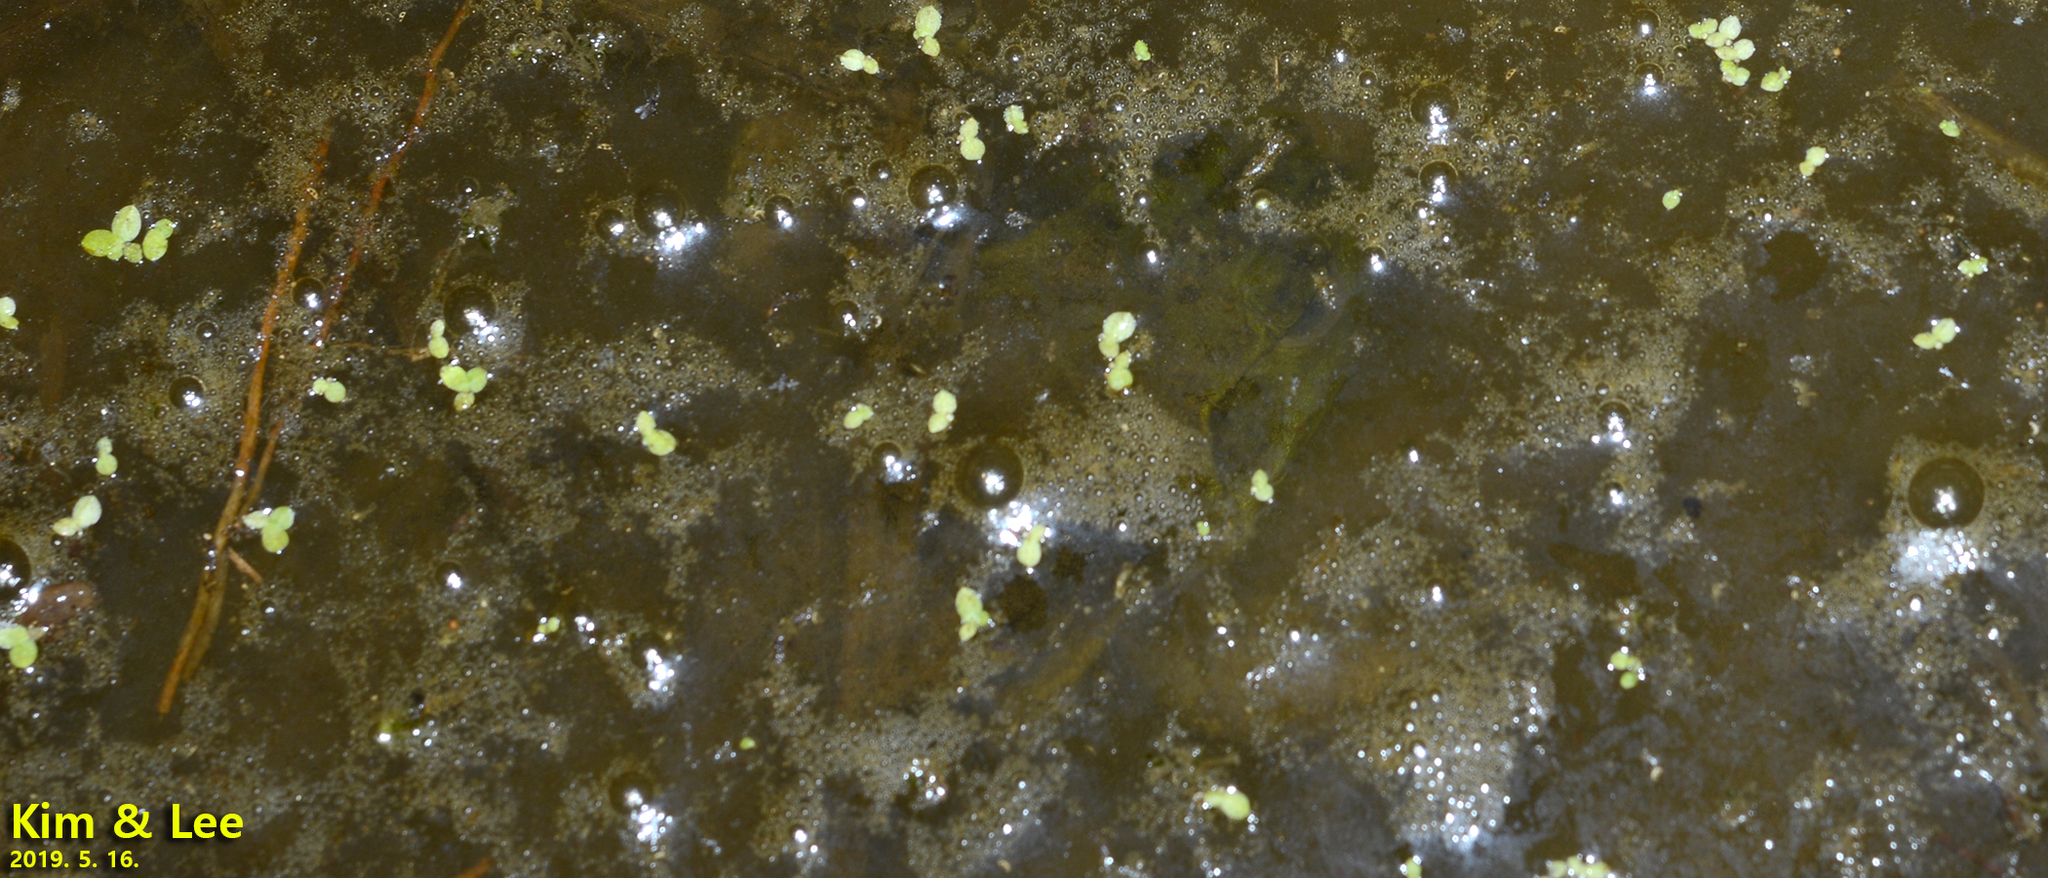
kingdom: Animalia
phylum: Chordata
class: Amphibia
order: Anura
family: Ranidae
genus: Lithobates
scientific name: Lithobates catesbeianus
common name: American bullfrog
